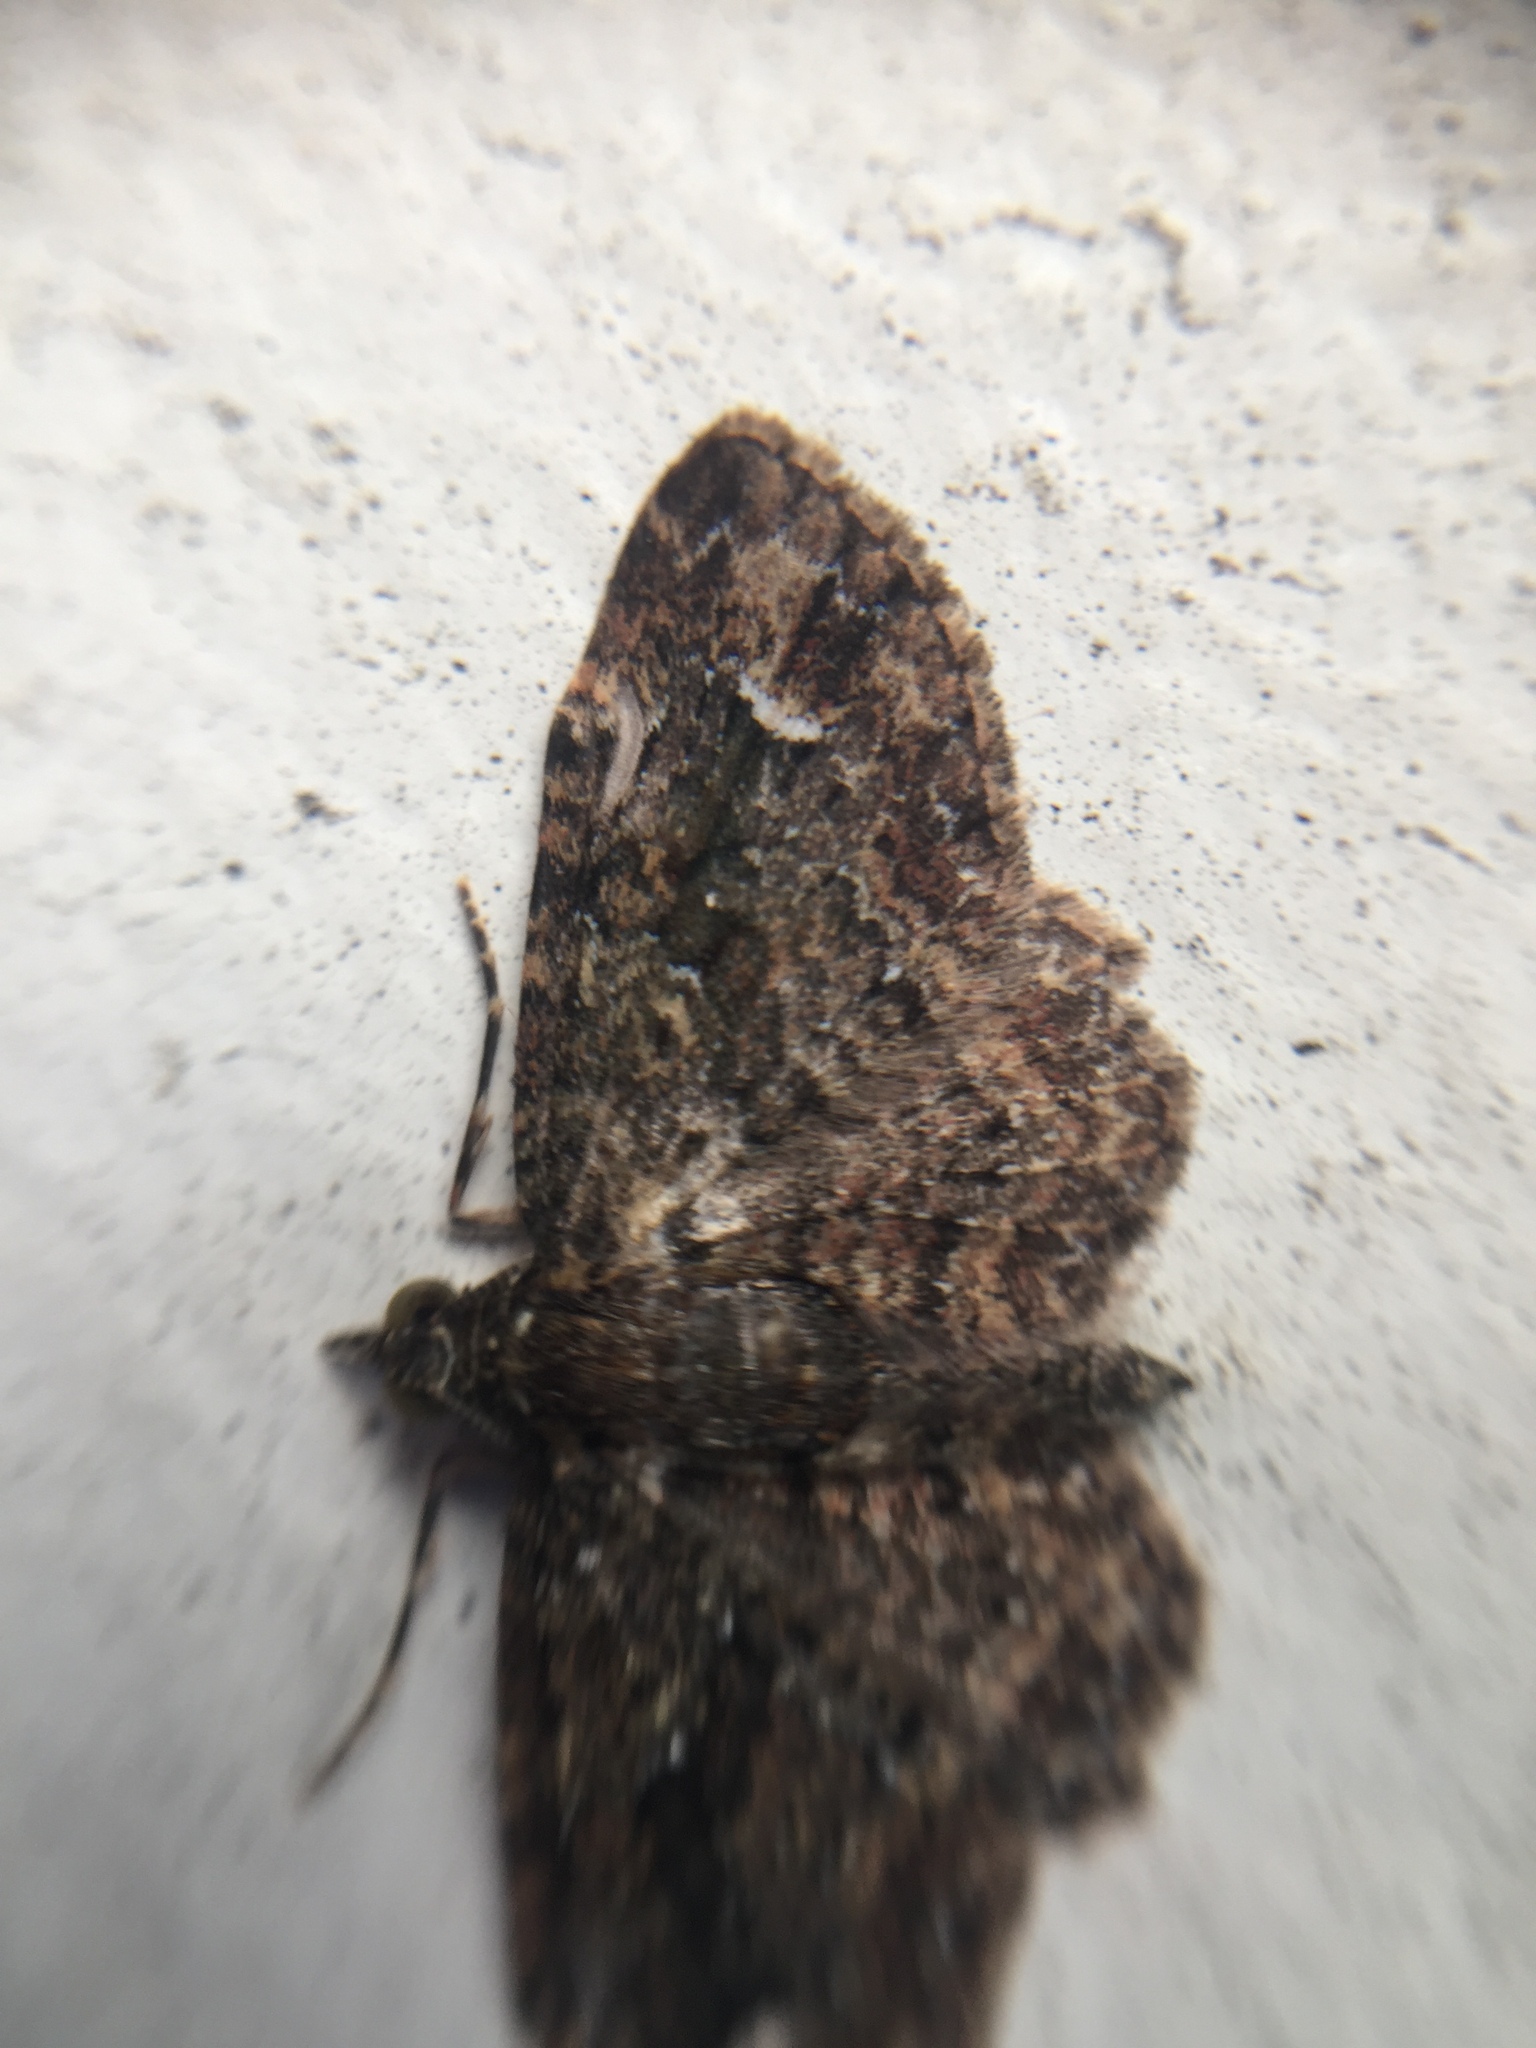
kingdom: Animalia
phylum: Arthropoda
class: Insecta
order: Lepidoptera
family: Geometridae
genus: Pasiphilodes
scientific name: Pasiphilodes testulata
